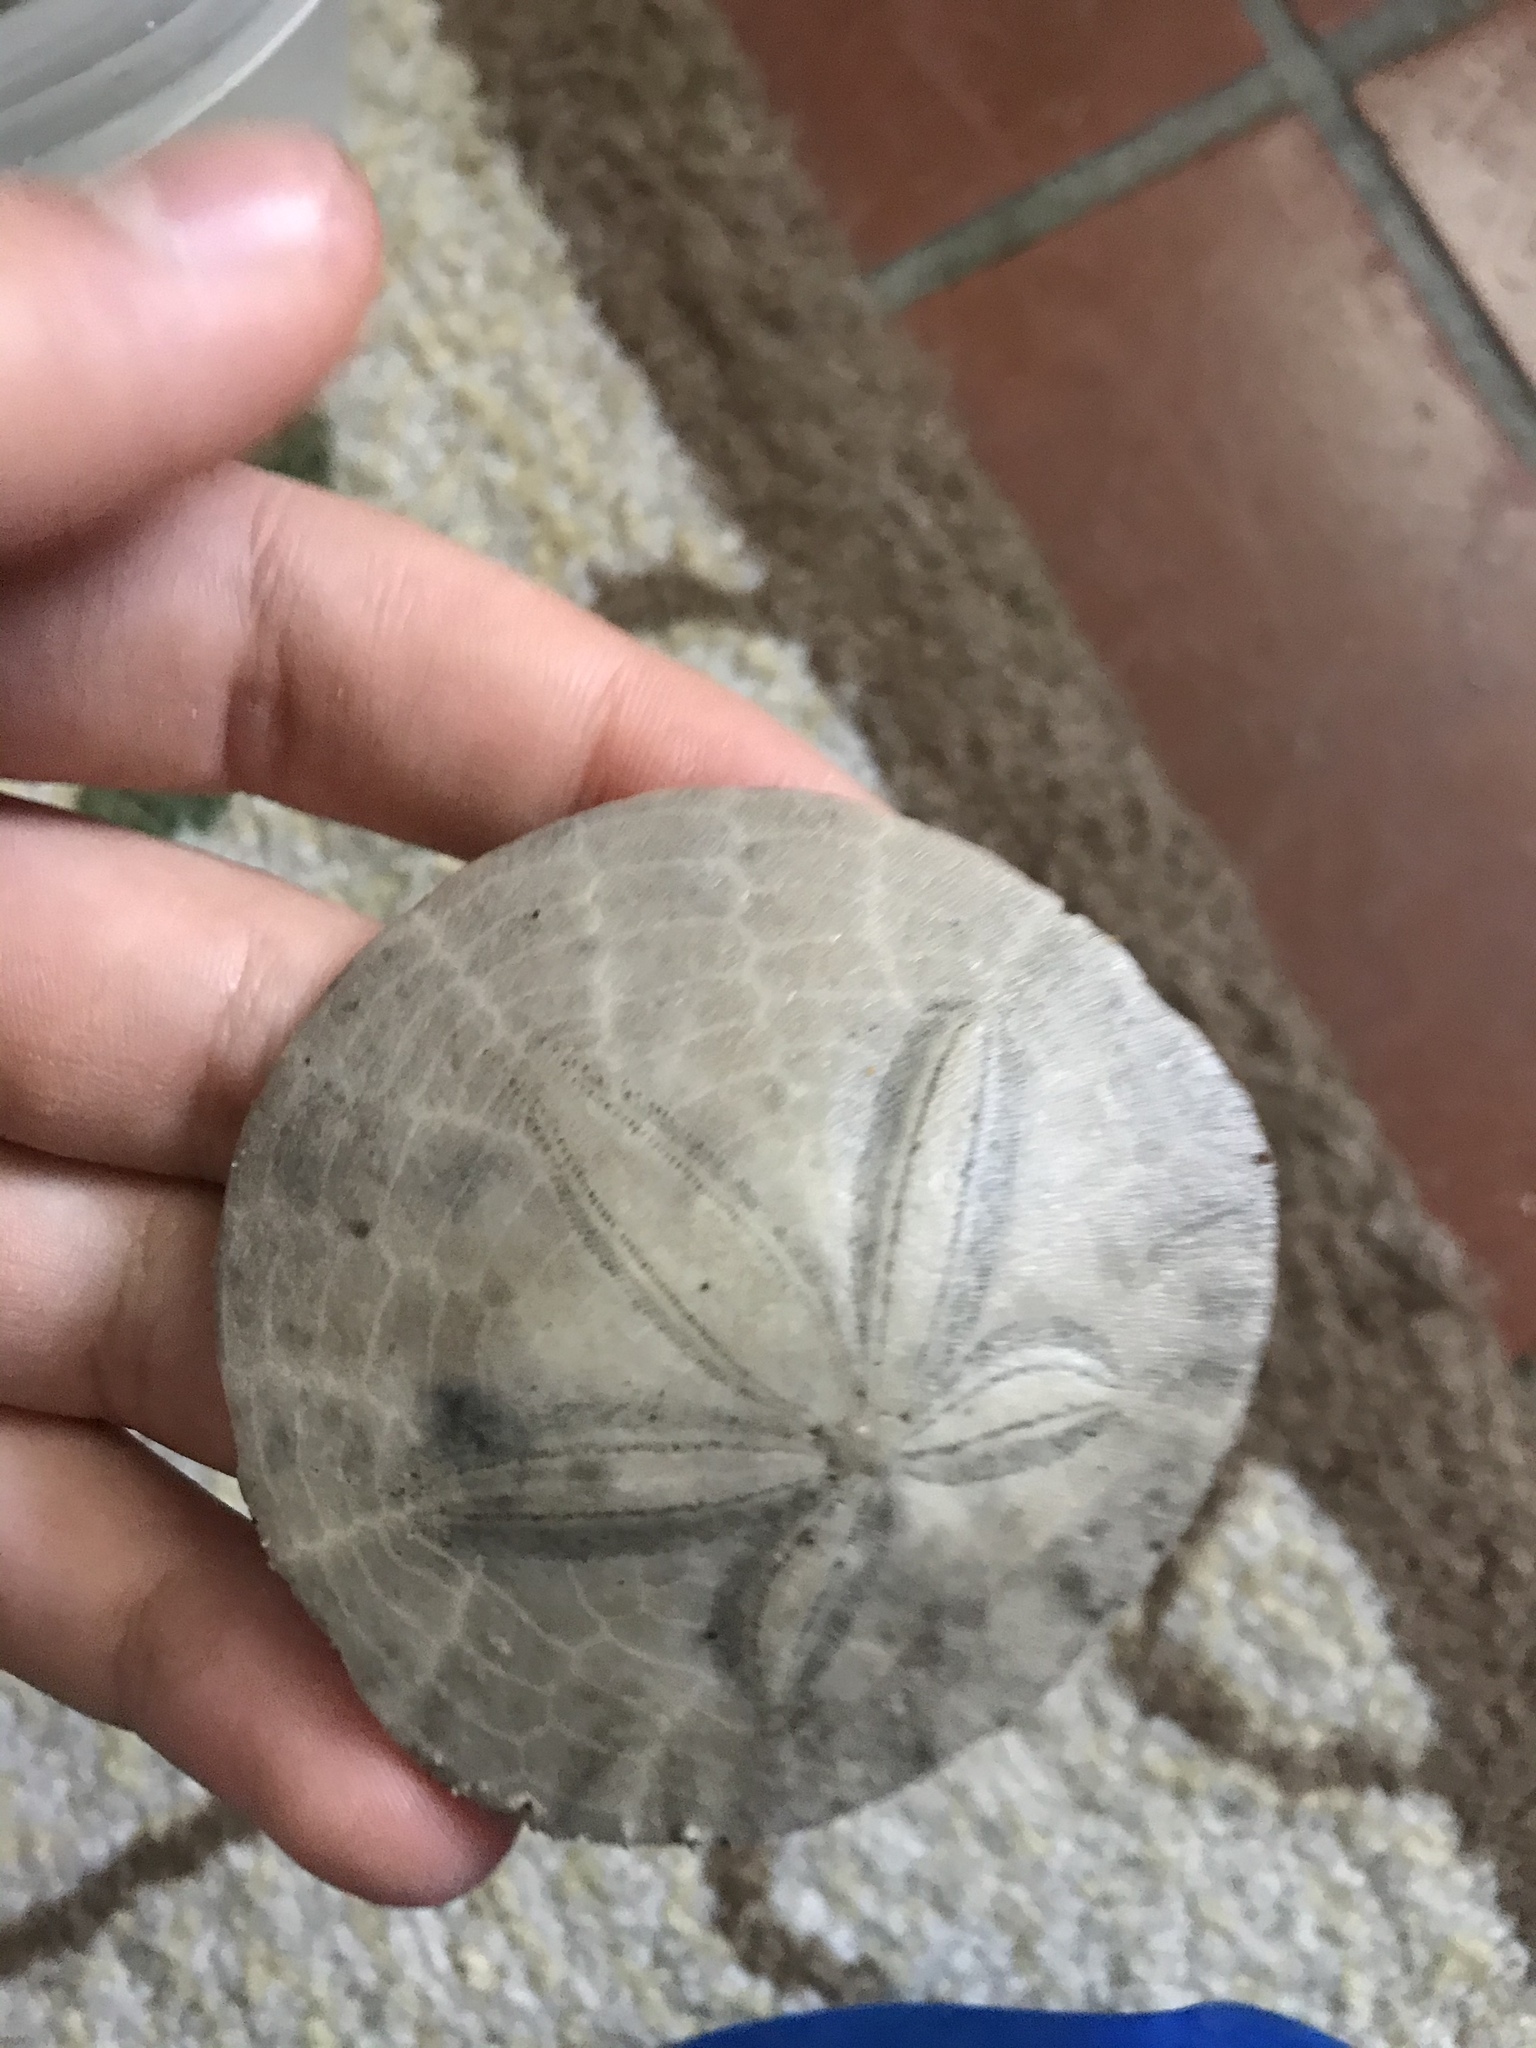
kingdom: Animalia
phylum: Echinodermata
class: Echinoidea
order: Echinolampadacea
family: Dendrasteridae
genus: Dendraster
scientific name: Dendraster excentricus
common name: Eccentric sand dollar sea urchin
